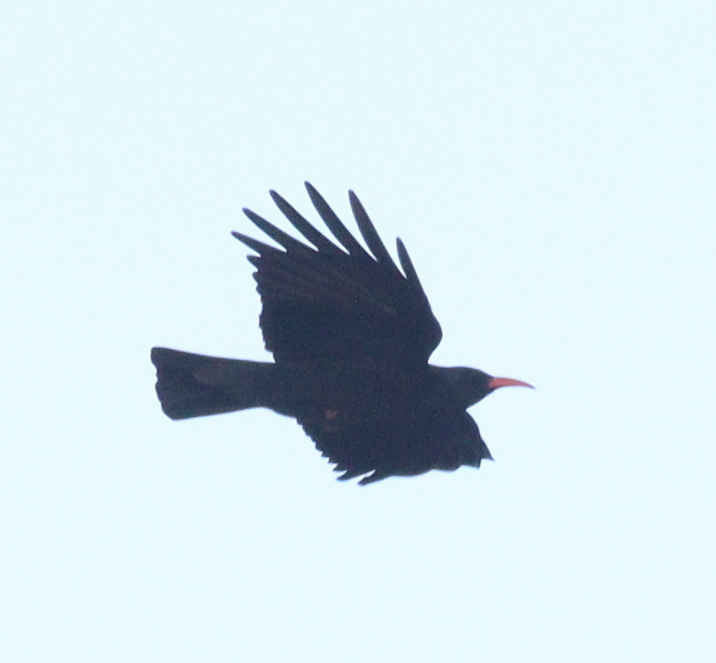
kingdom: Animalia
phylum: Chordata
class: Aves
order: Passeriformes
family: Corvidae
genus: Pyrrhocorax
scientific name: Pyrrhocorax pyrrhocorax
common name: Red-billed chough
